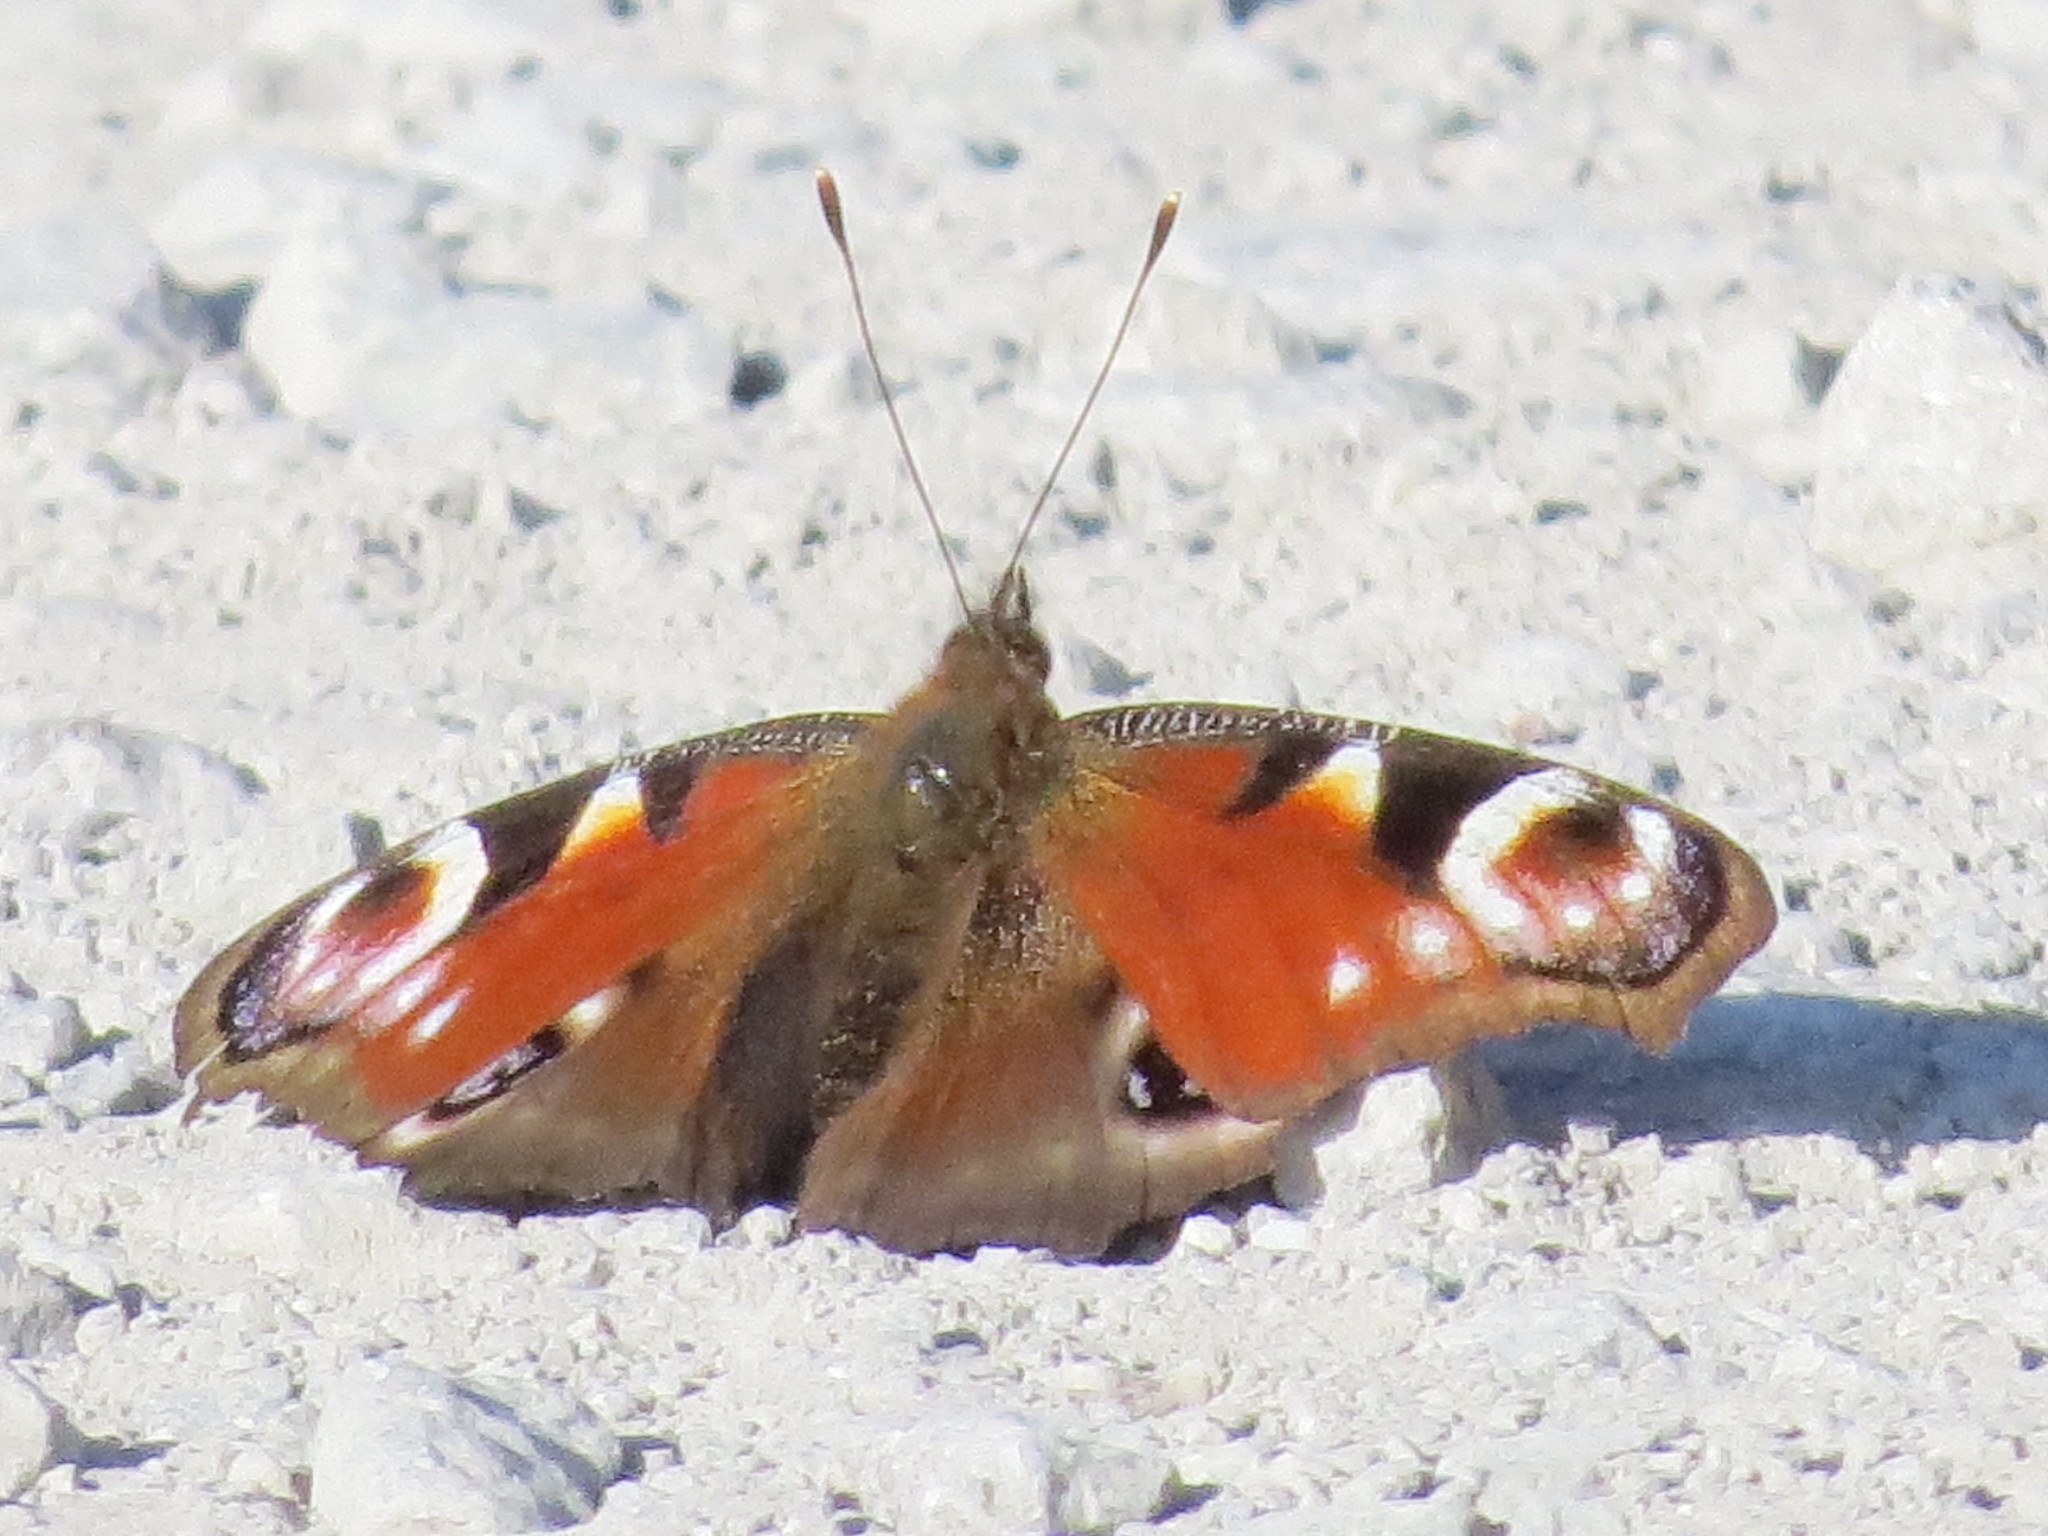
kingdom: Animalia
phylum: Arthropoda
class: Insecta
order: Lepidoptera
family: Nymphalidae
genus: Aglais
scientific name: Aglais io
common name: Peacock
